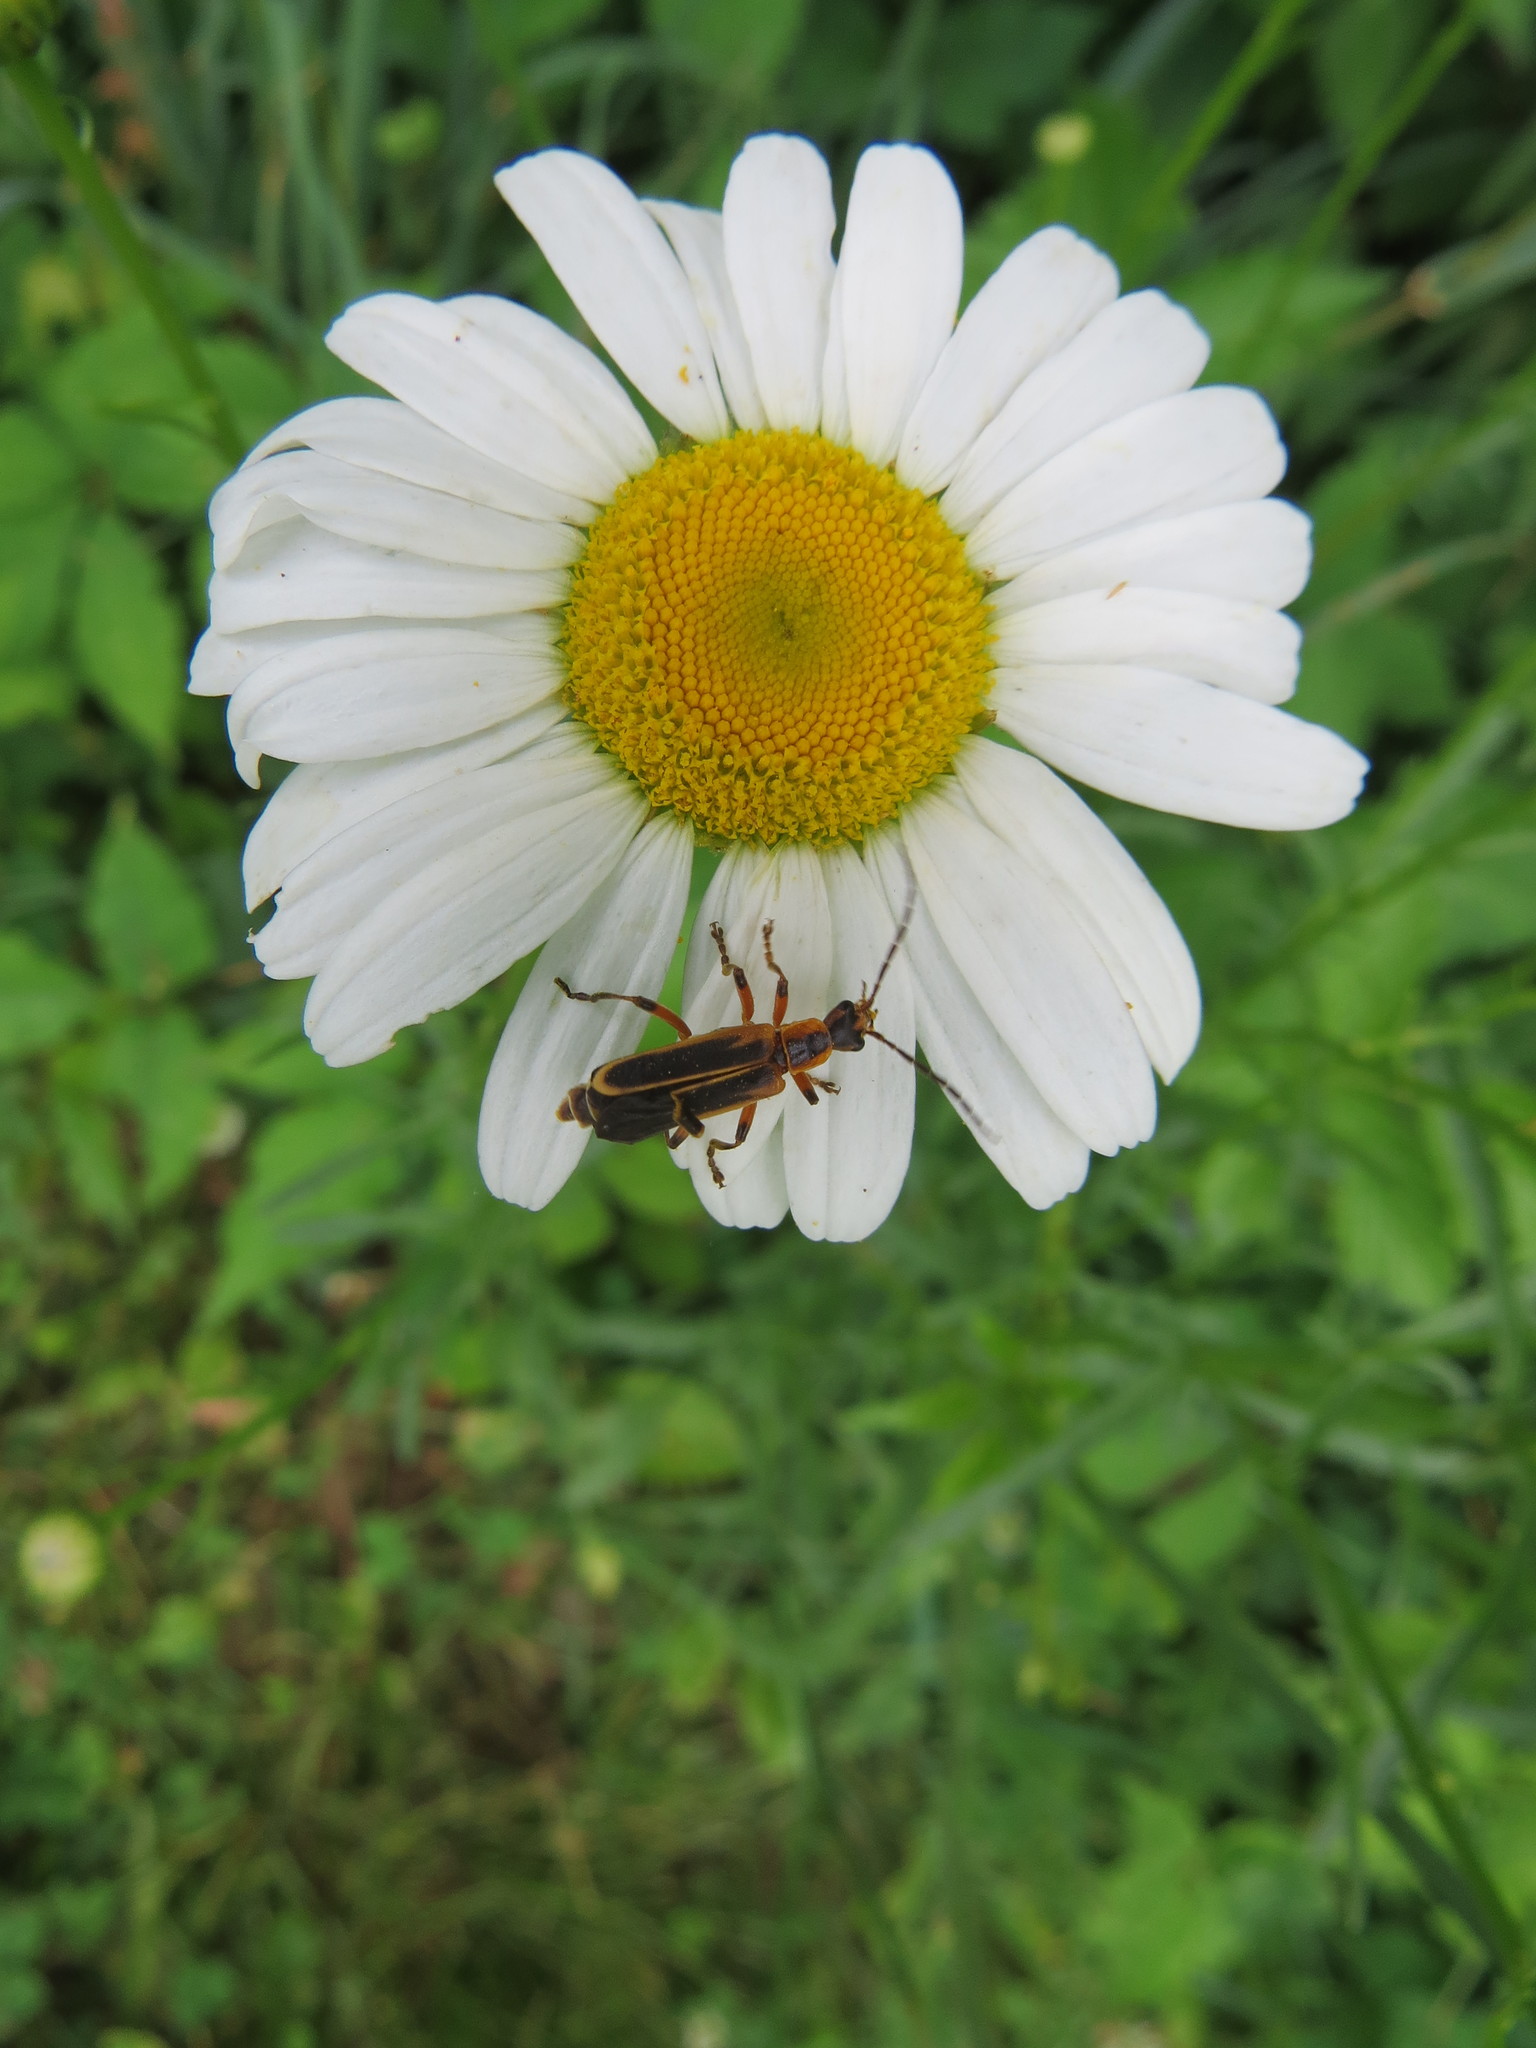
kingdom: Animalia
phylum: Arthropoda
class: Insecta
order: Coleoptera
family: Cantharidae
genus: Chauliognathus
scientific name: Chauliognathus marginatus
